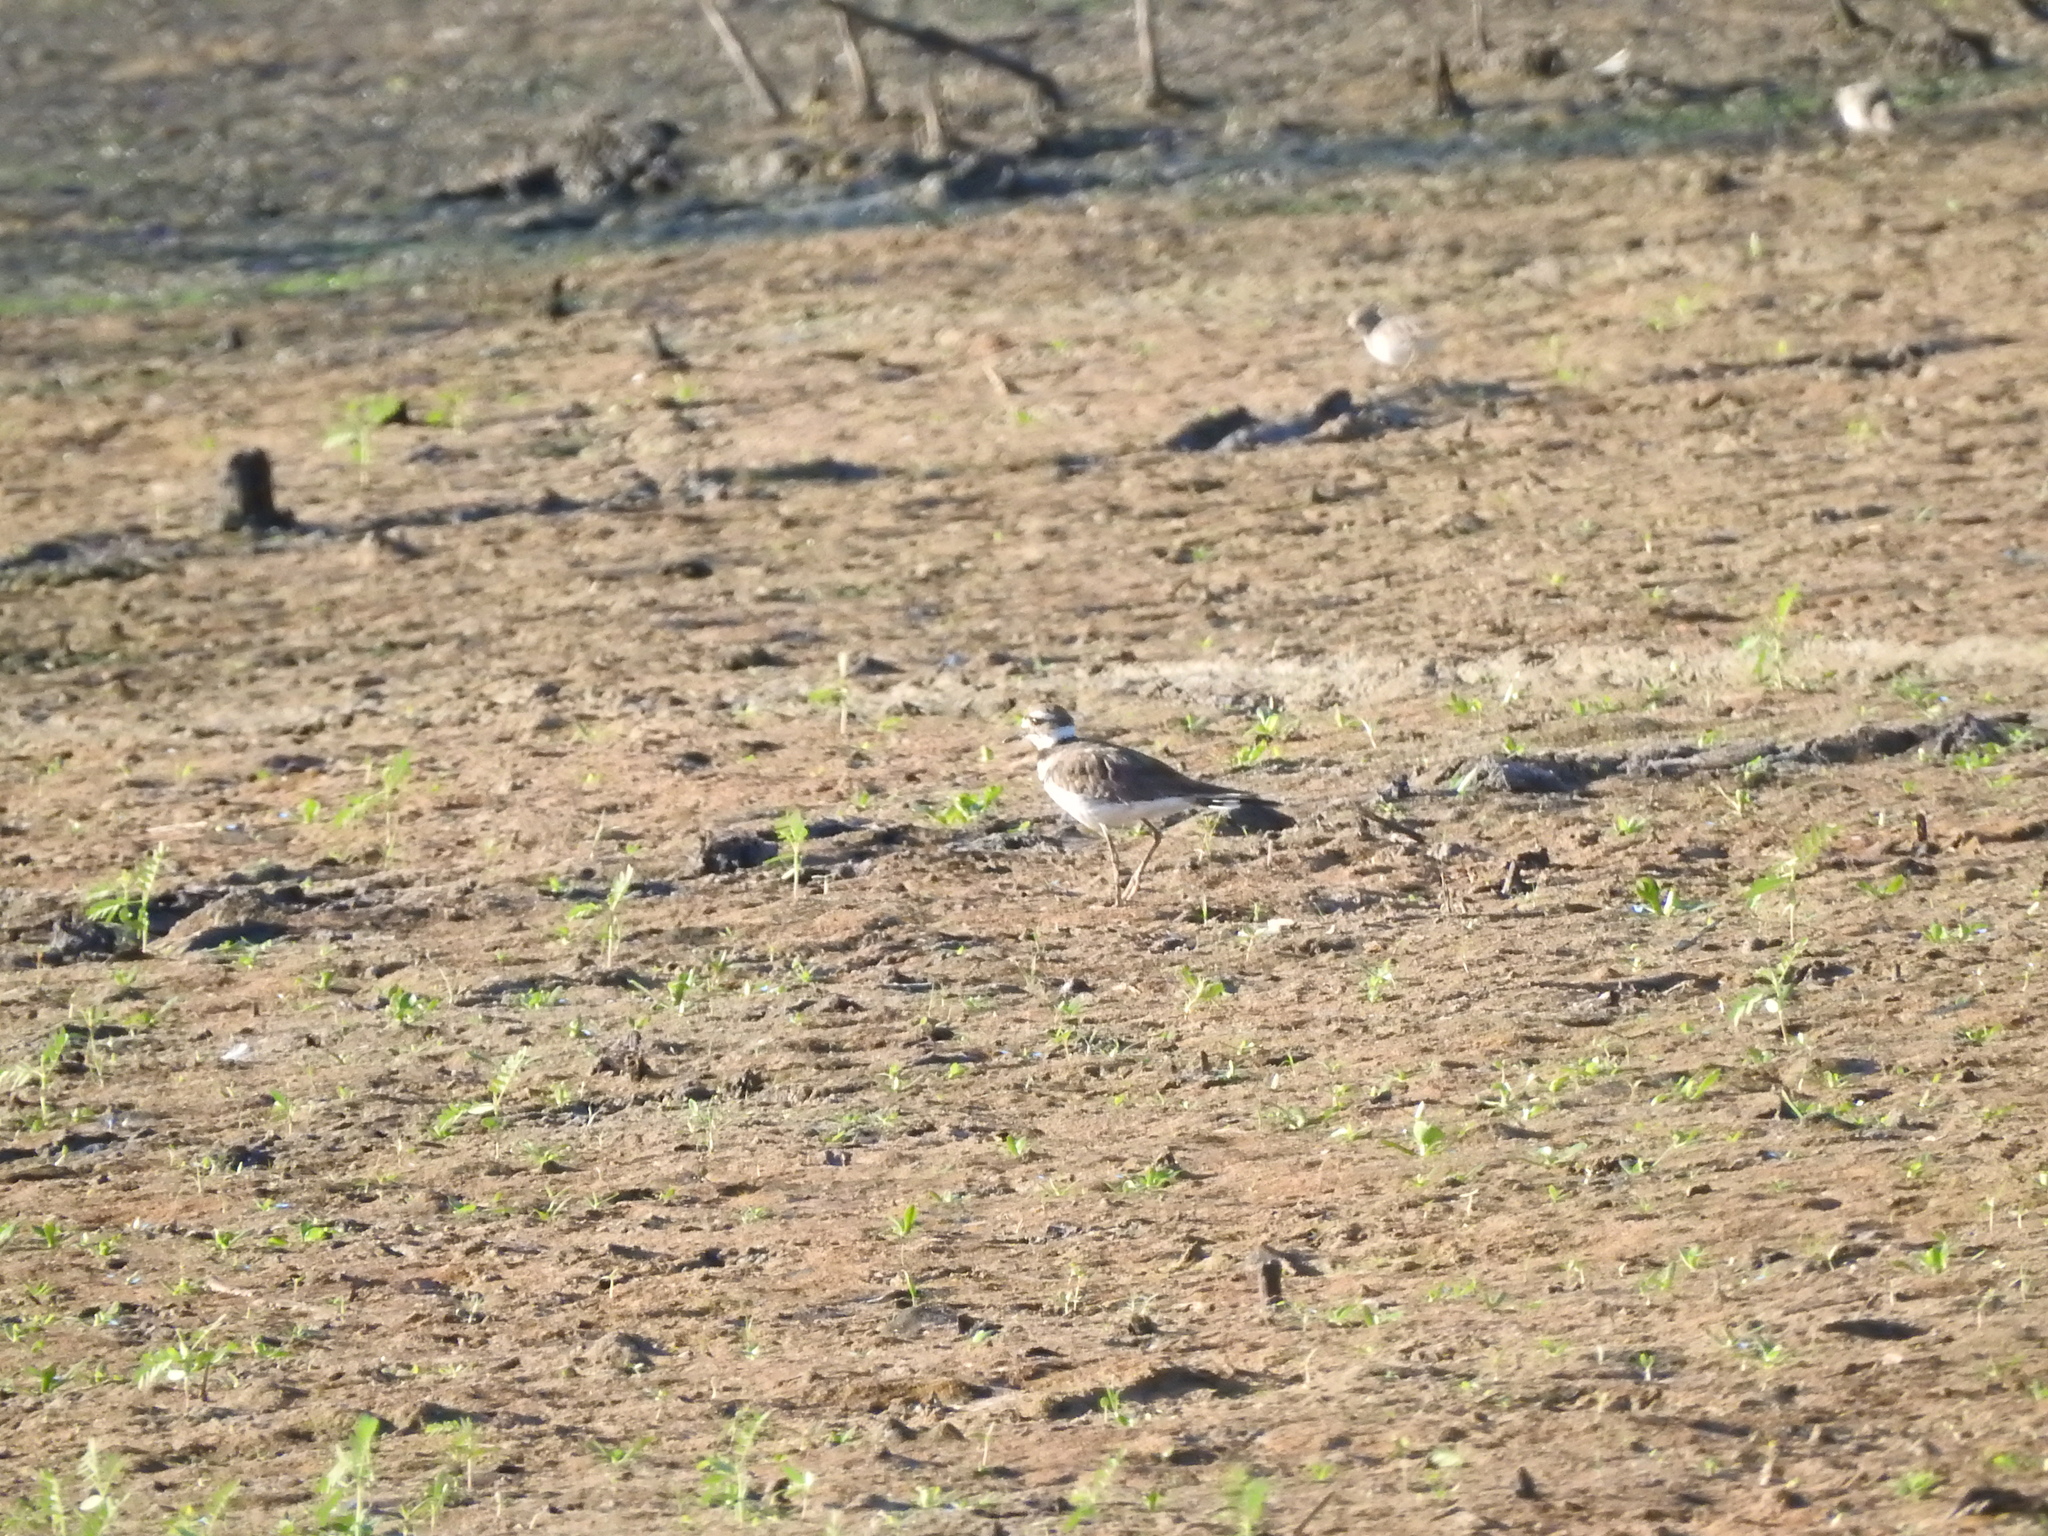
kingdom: Animalia
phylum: Chordata
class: Aves
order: Charadriiformes
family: Charadriidae
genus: Charadrius
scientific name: Charadrius vociferus
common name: Killdeer
